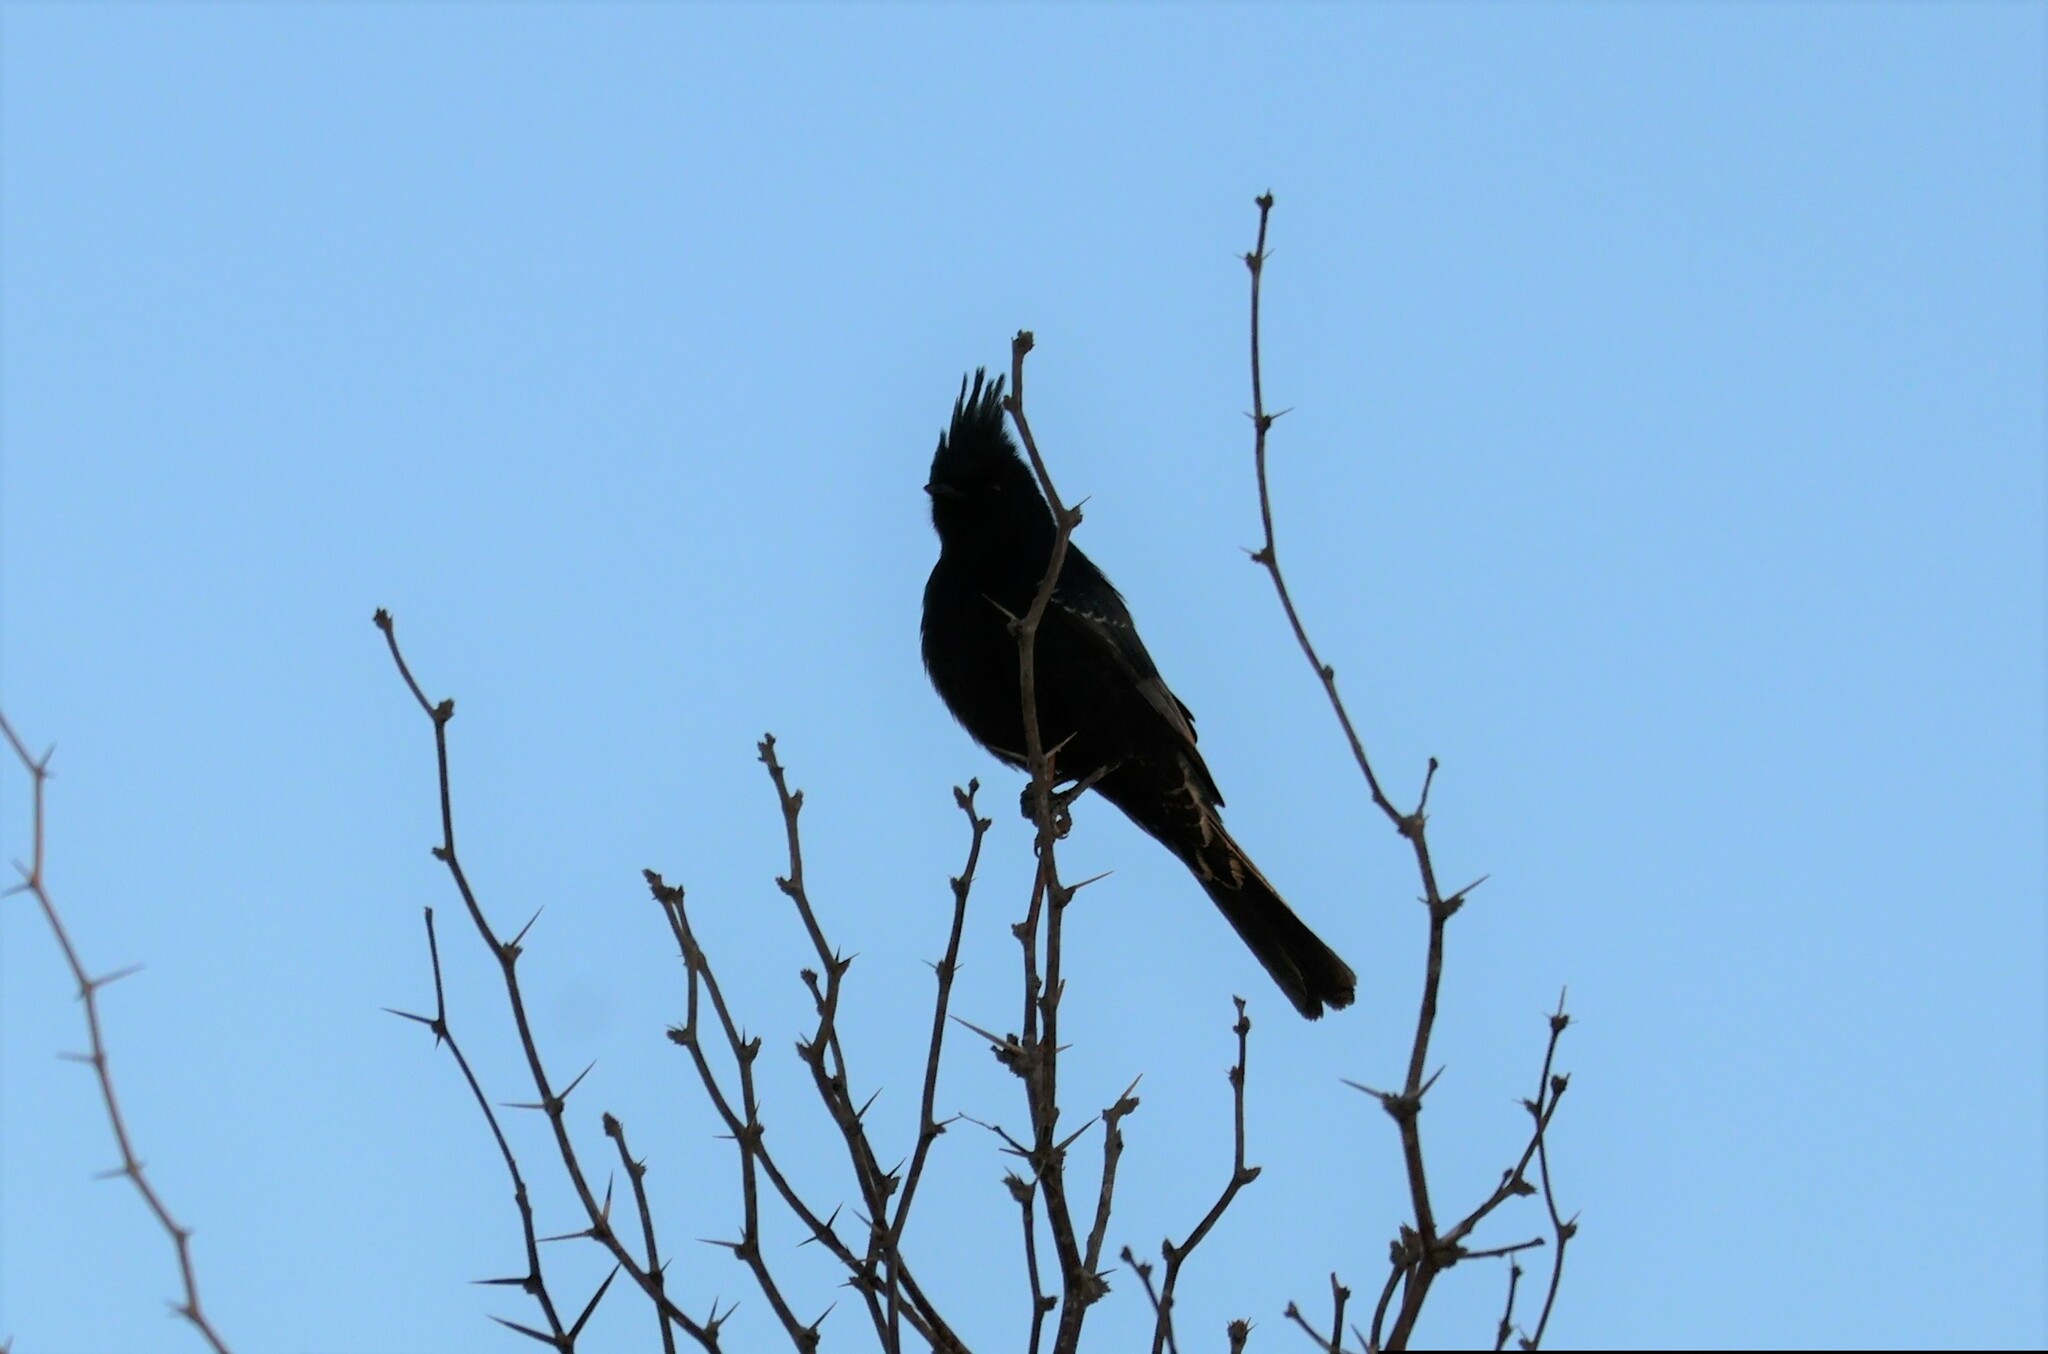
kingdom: Animalia
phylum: Chordata
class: Aves
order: Passeriformes
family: Ptilogonatidae
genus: Phainopepla
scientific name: Phainopepla nitens
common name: Phainopepla
